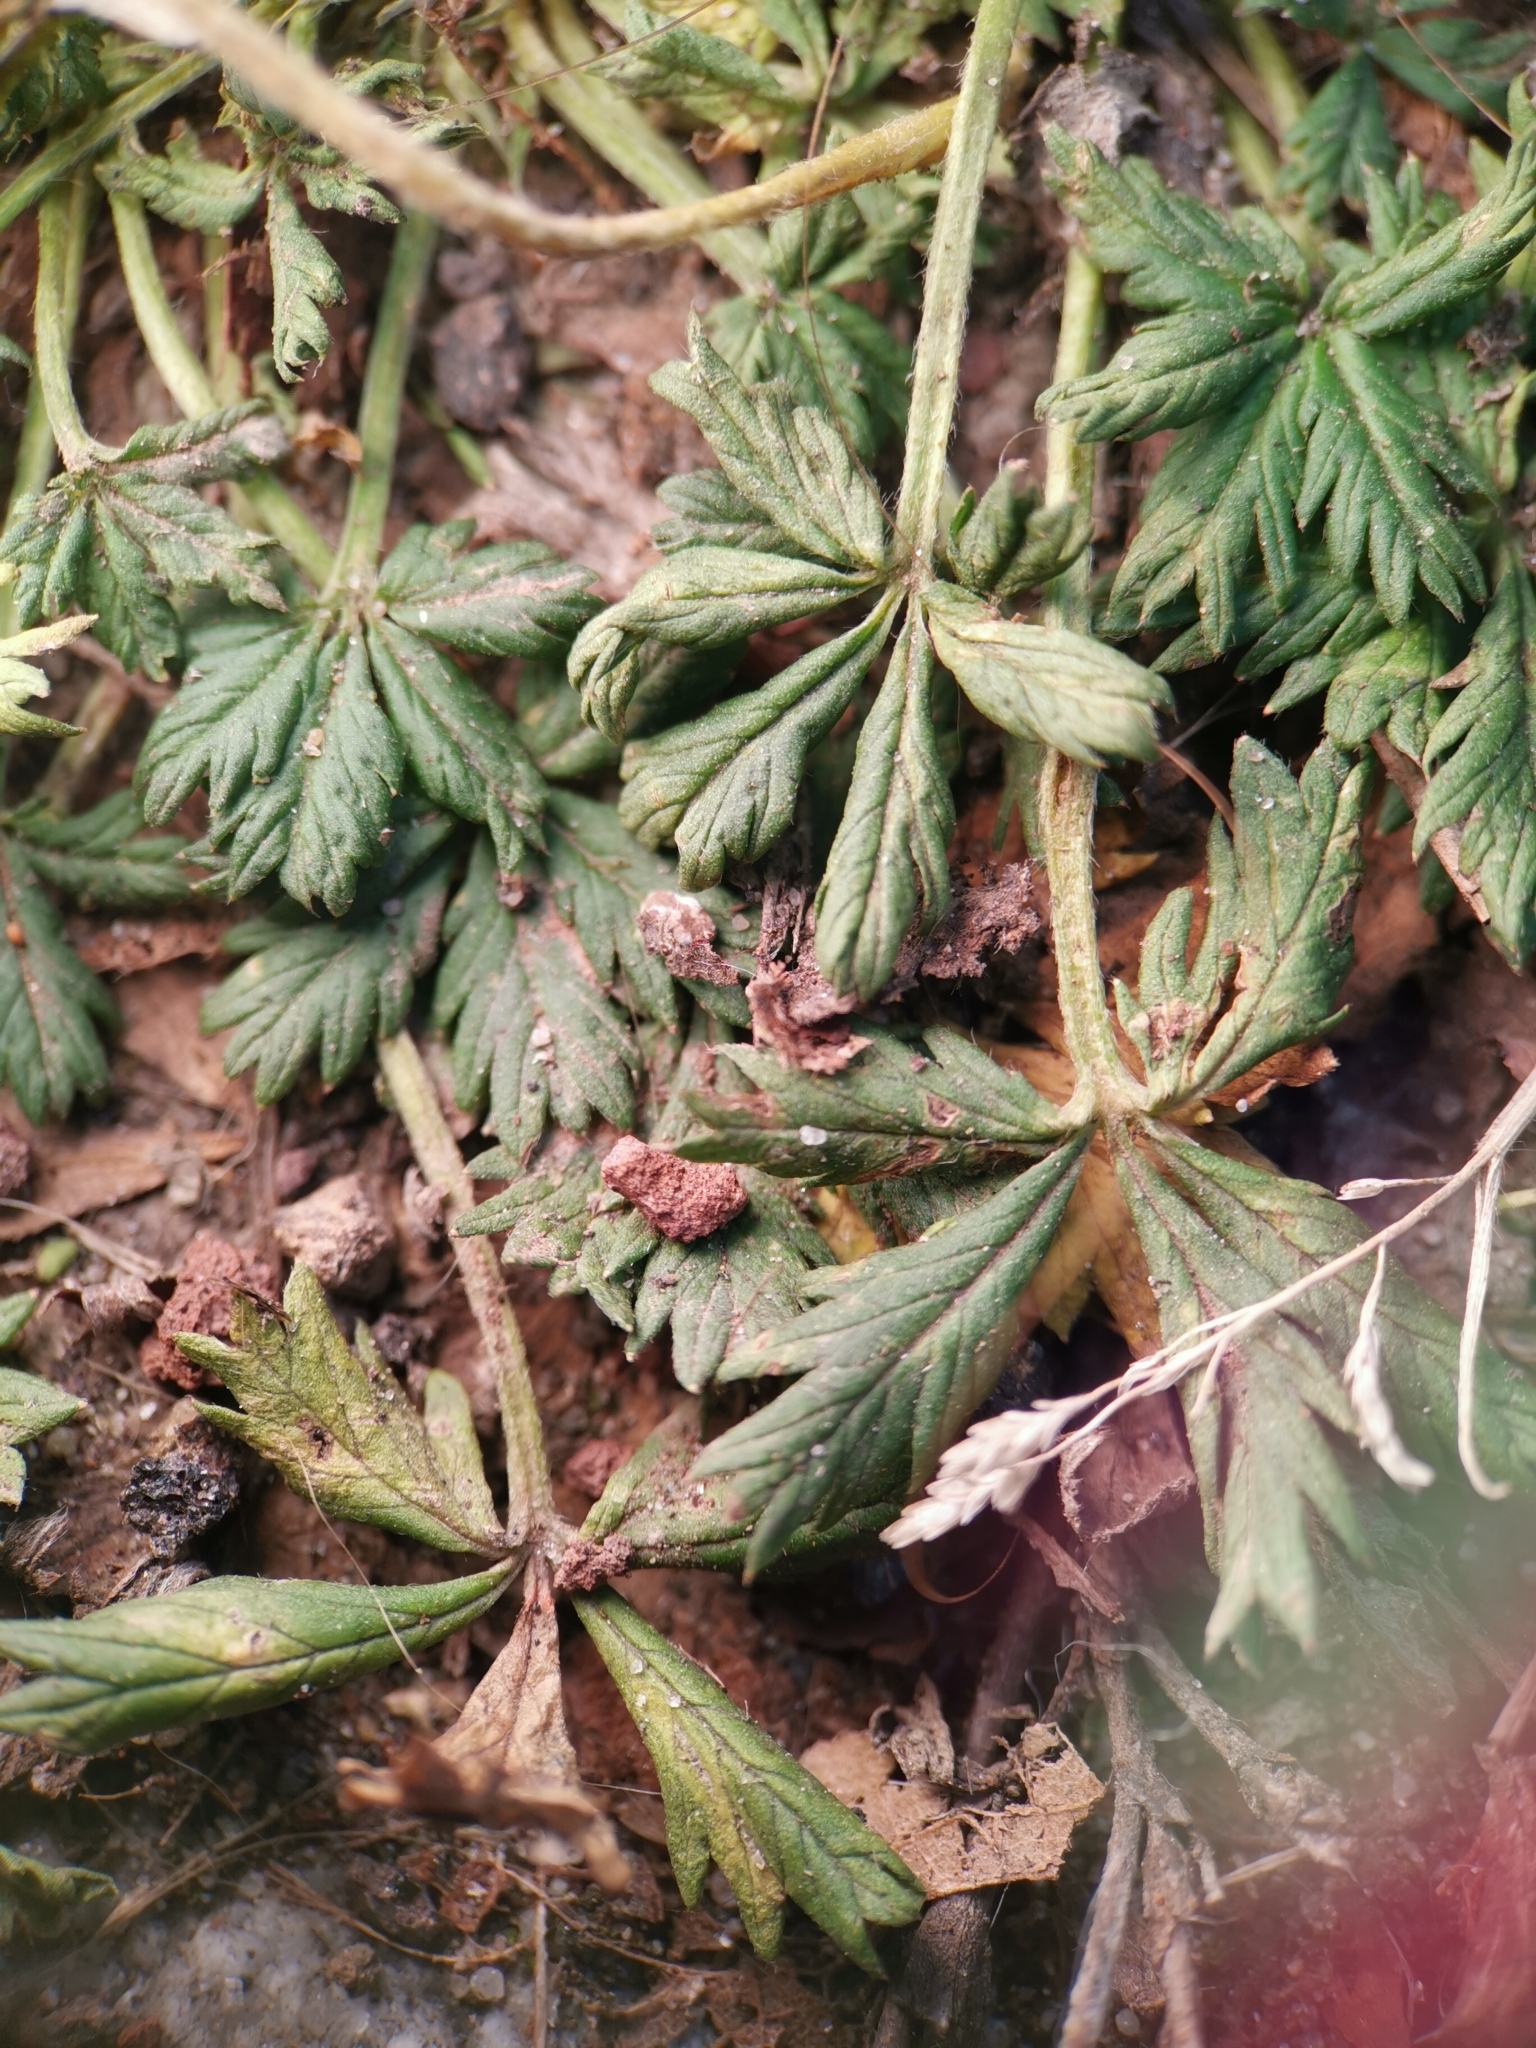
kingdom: Plantae
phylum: Tracheophyta
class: Magnoliopsida
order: Rosales
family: Rosaceae
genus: Potentilla
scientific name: Potentilla argentea
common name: Hoary cinquefoil
